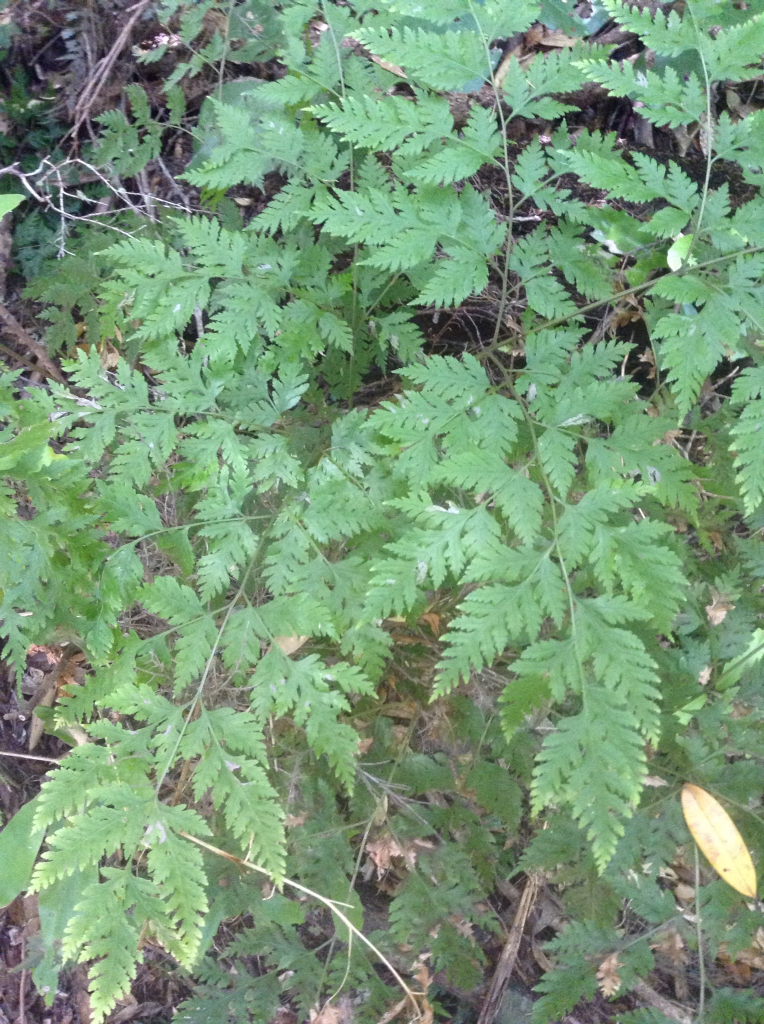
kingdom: Plantae
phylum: Tracheophyta
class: Polypodiopsida
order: Polypodiales
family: Pteridaceae
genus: Pteris
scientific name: Pteris macilenta
